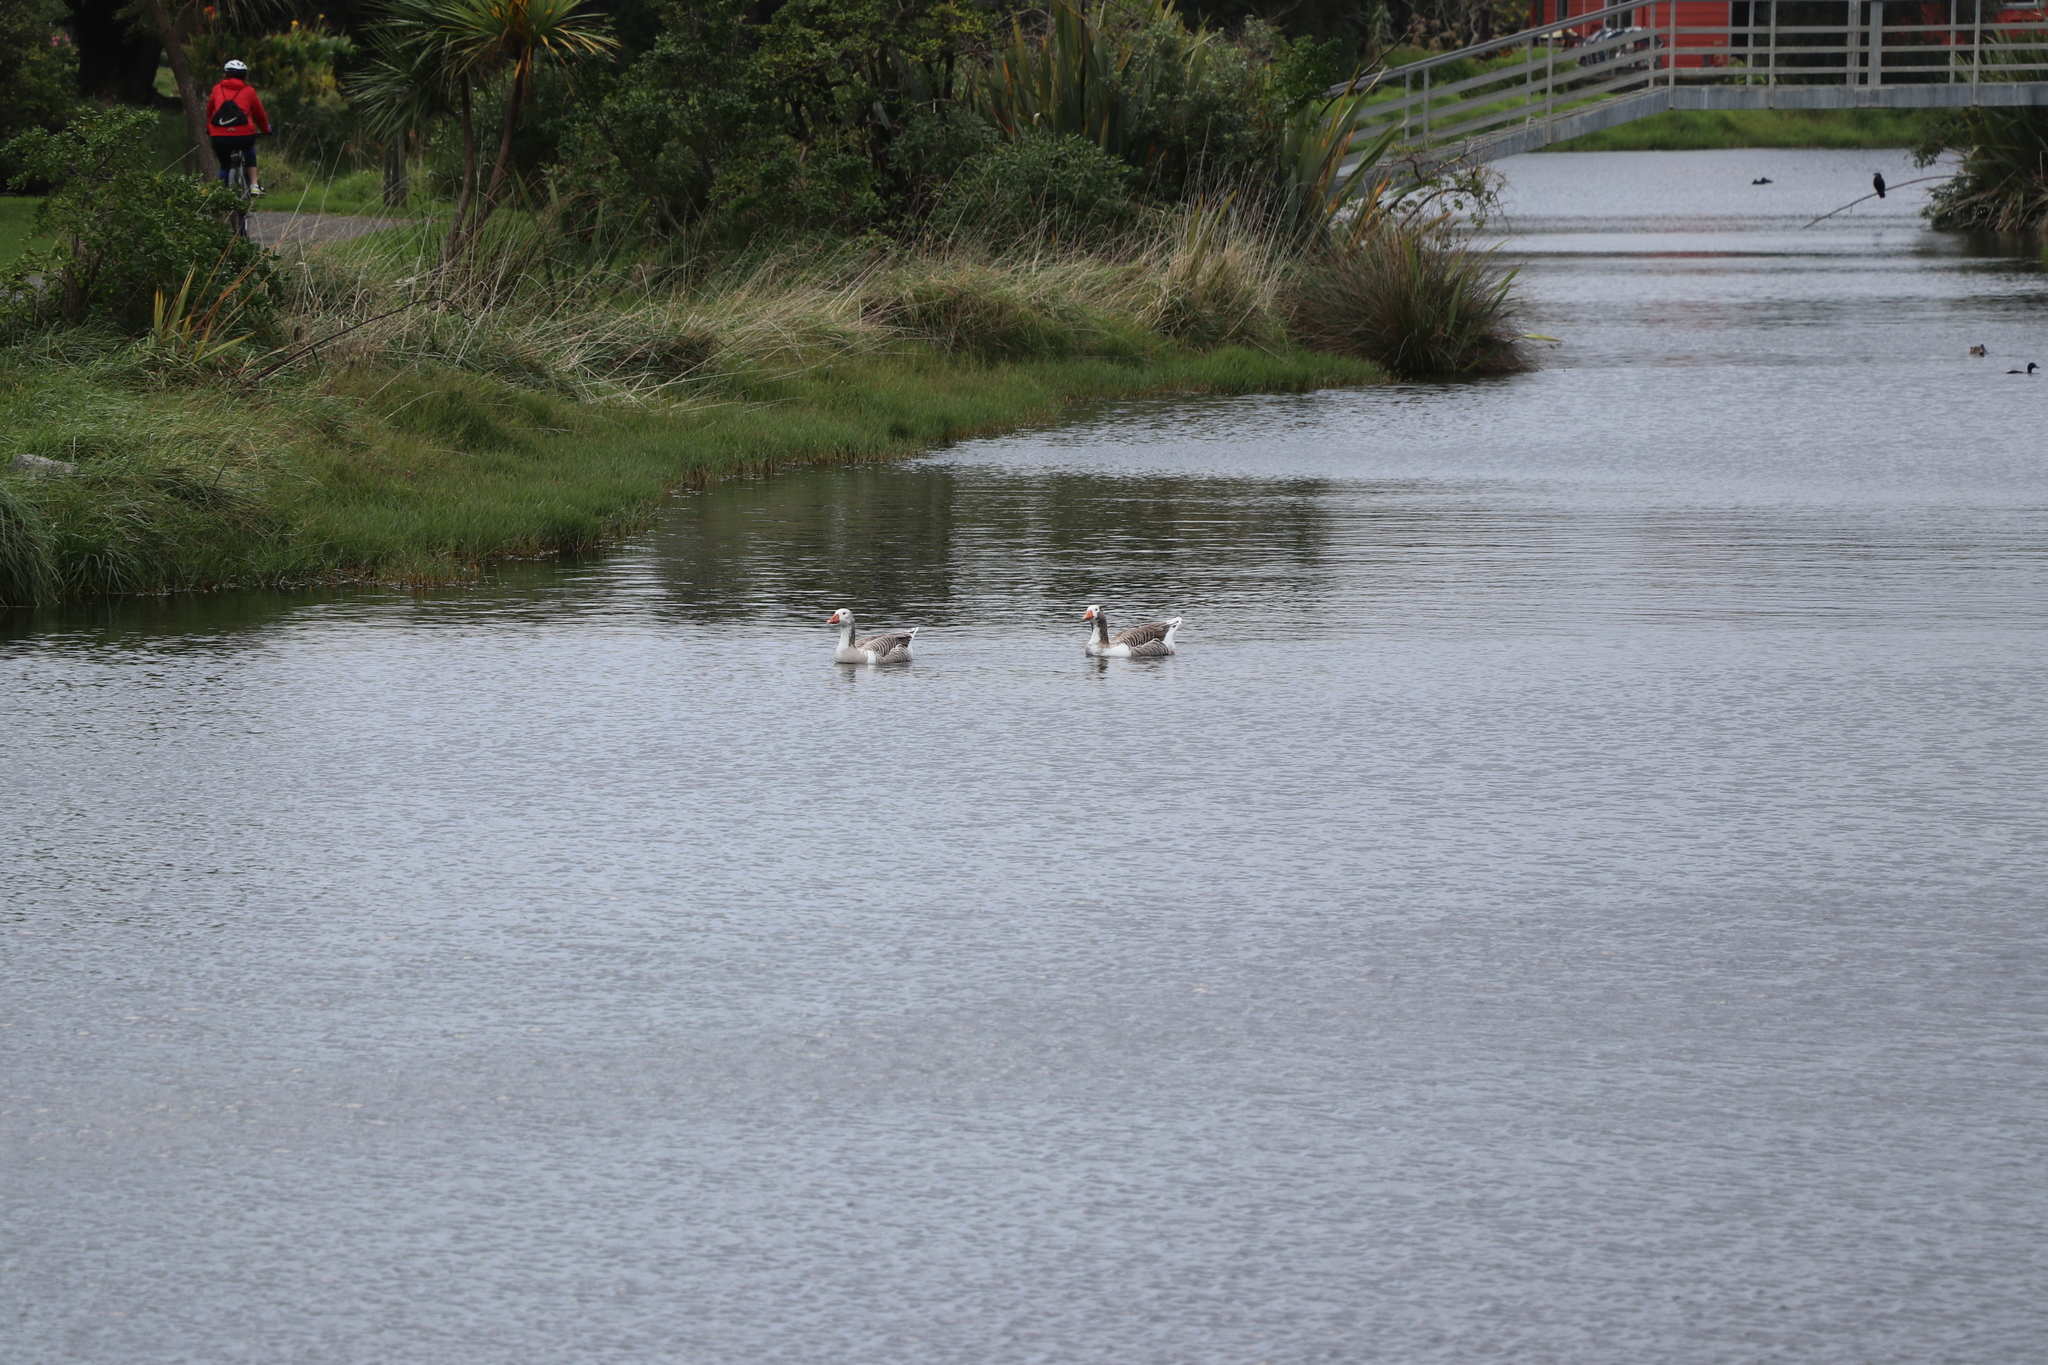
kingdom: Animalia
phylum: Chordata
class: Aves
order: Anseriformes
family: Anatidae
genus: Anser
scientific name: Anser anser
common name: Greylag goose
